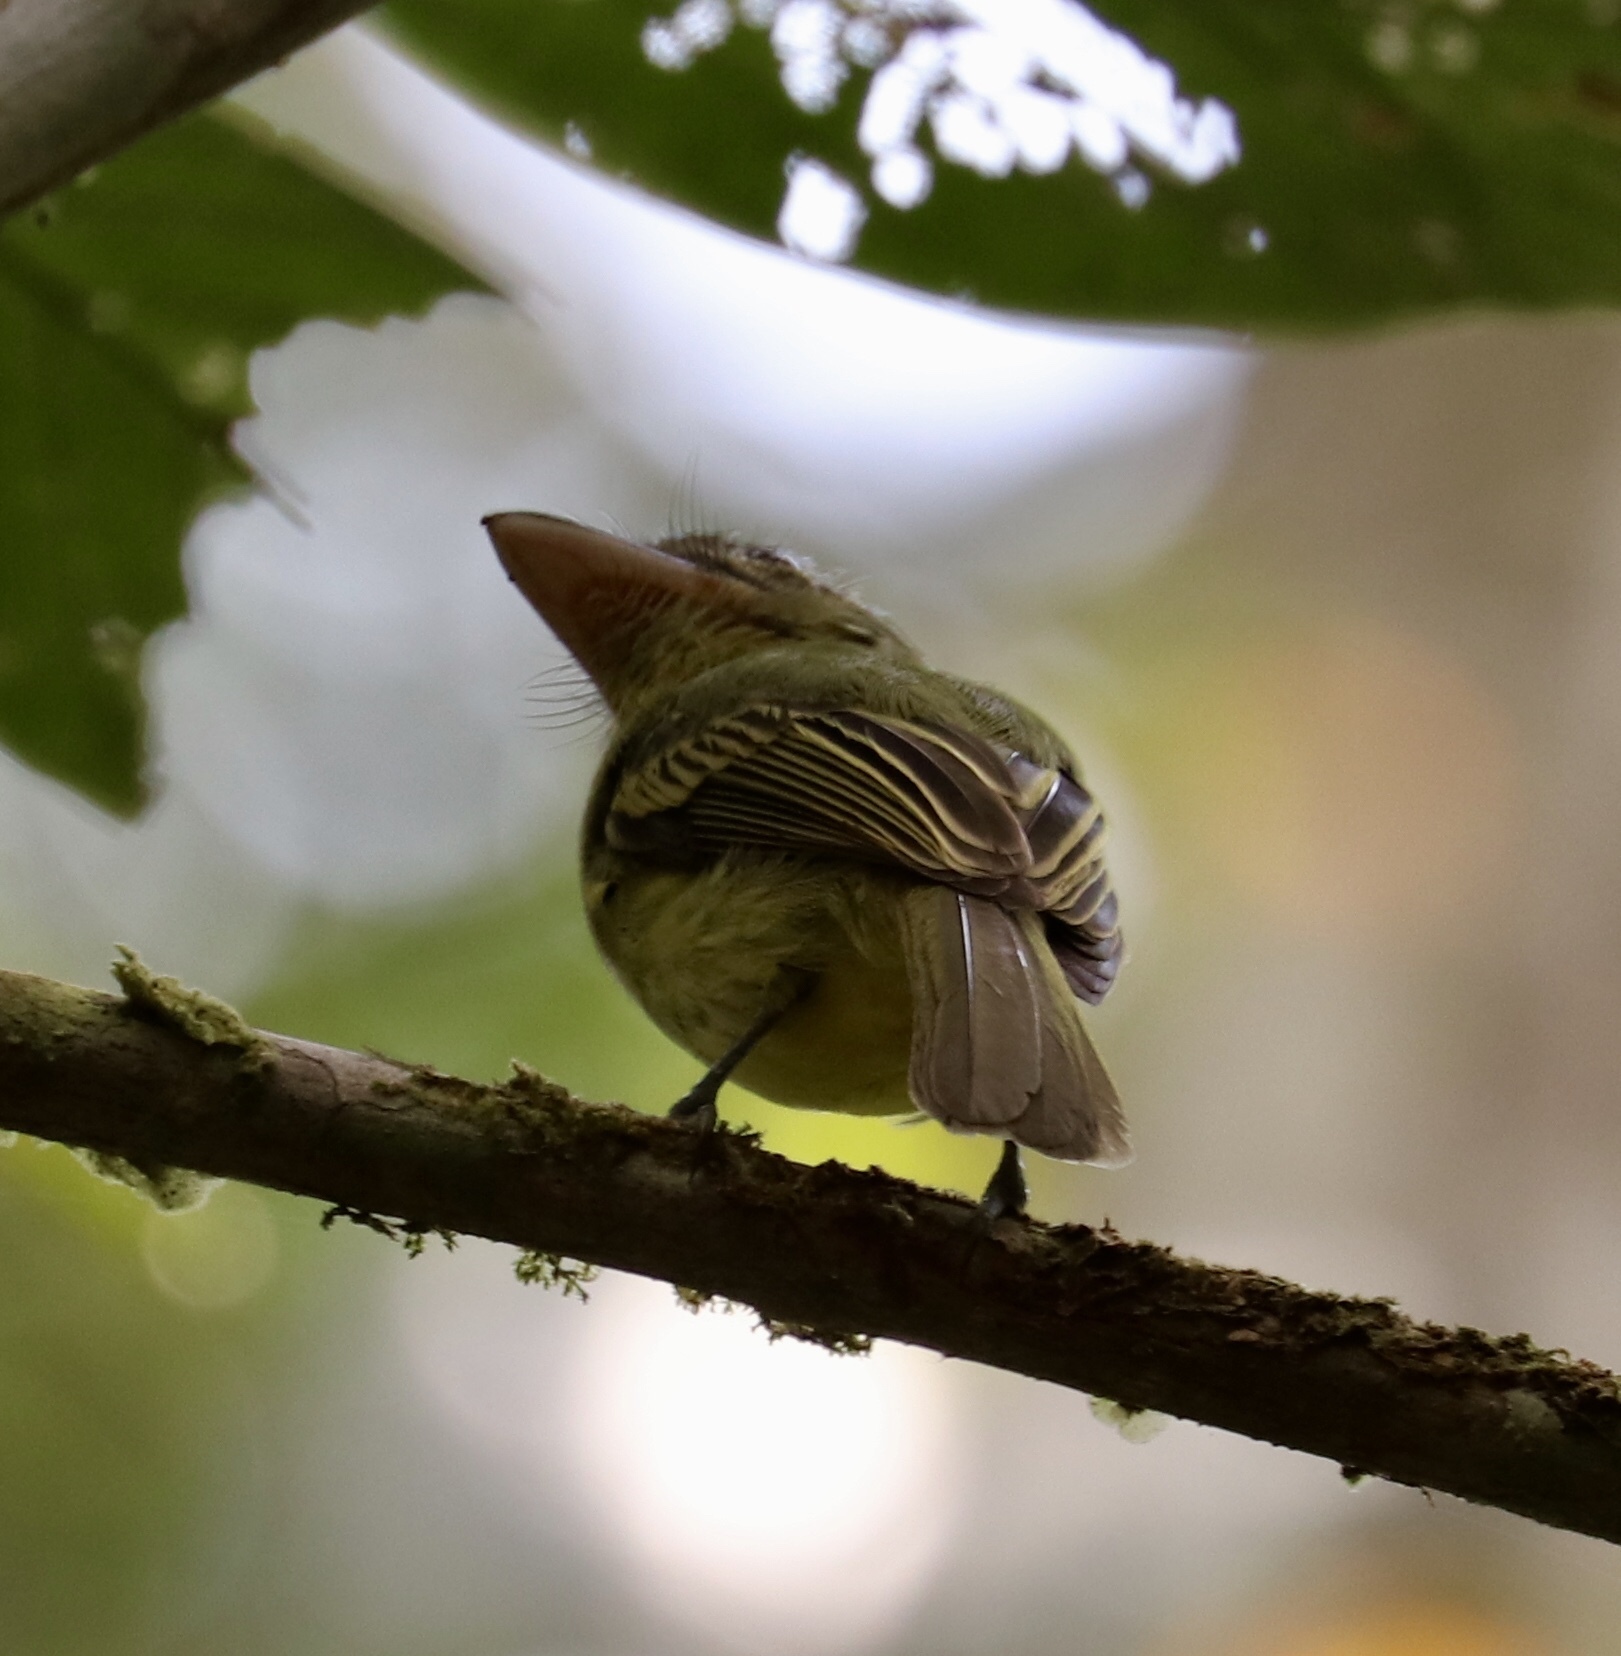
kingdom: Animalia
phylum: Chordata
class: Aves
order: Passeriformes
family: Tyrannidae
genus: Rhynchocyclus
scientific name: Rhynchocyclus olivaceus
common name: Olivaceous flatbill
